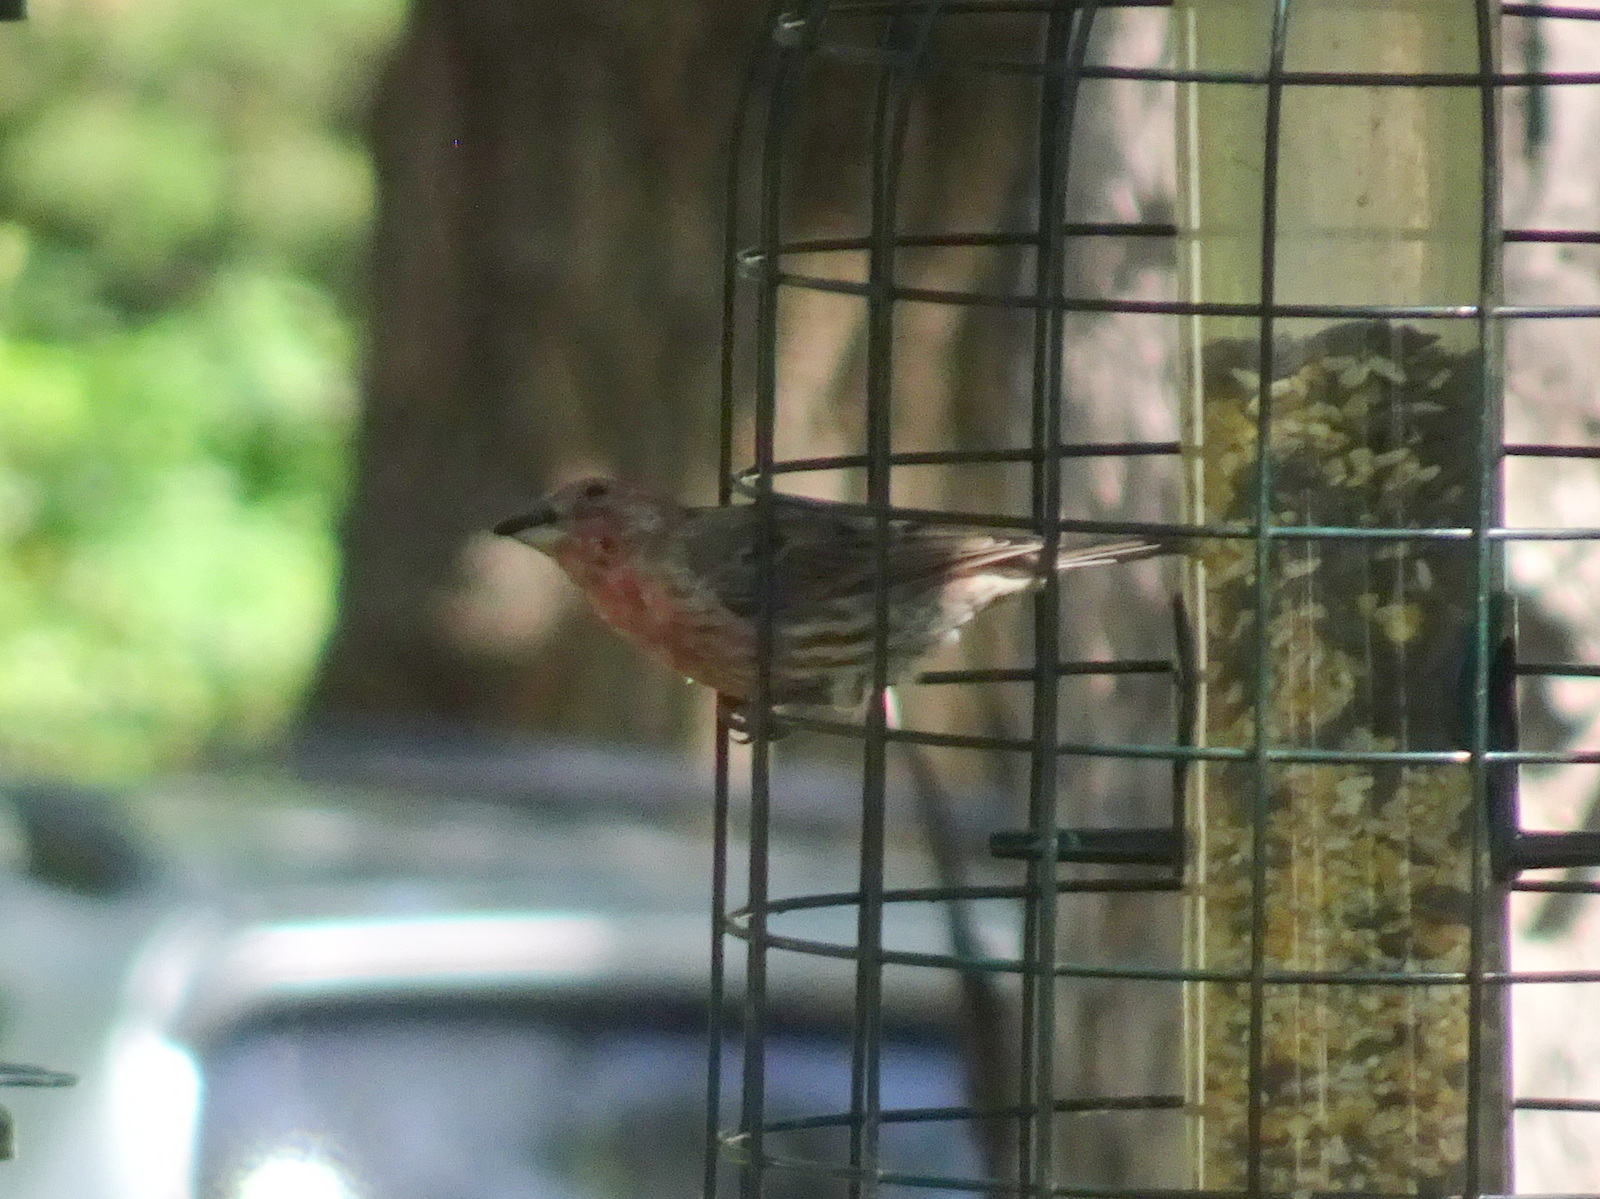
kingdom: Animalia
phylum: Chordata
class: Aves
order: Passeriformes
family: Fringillidae
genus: Haemorhous
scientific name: Haemorhous mexicanus
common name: House finch
